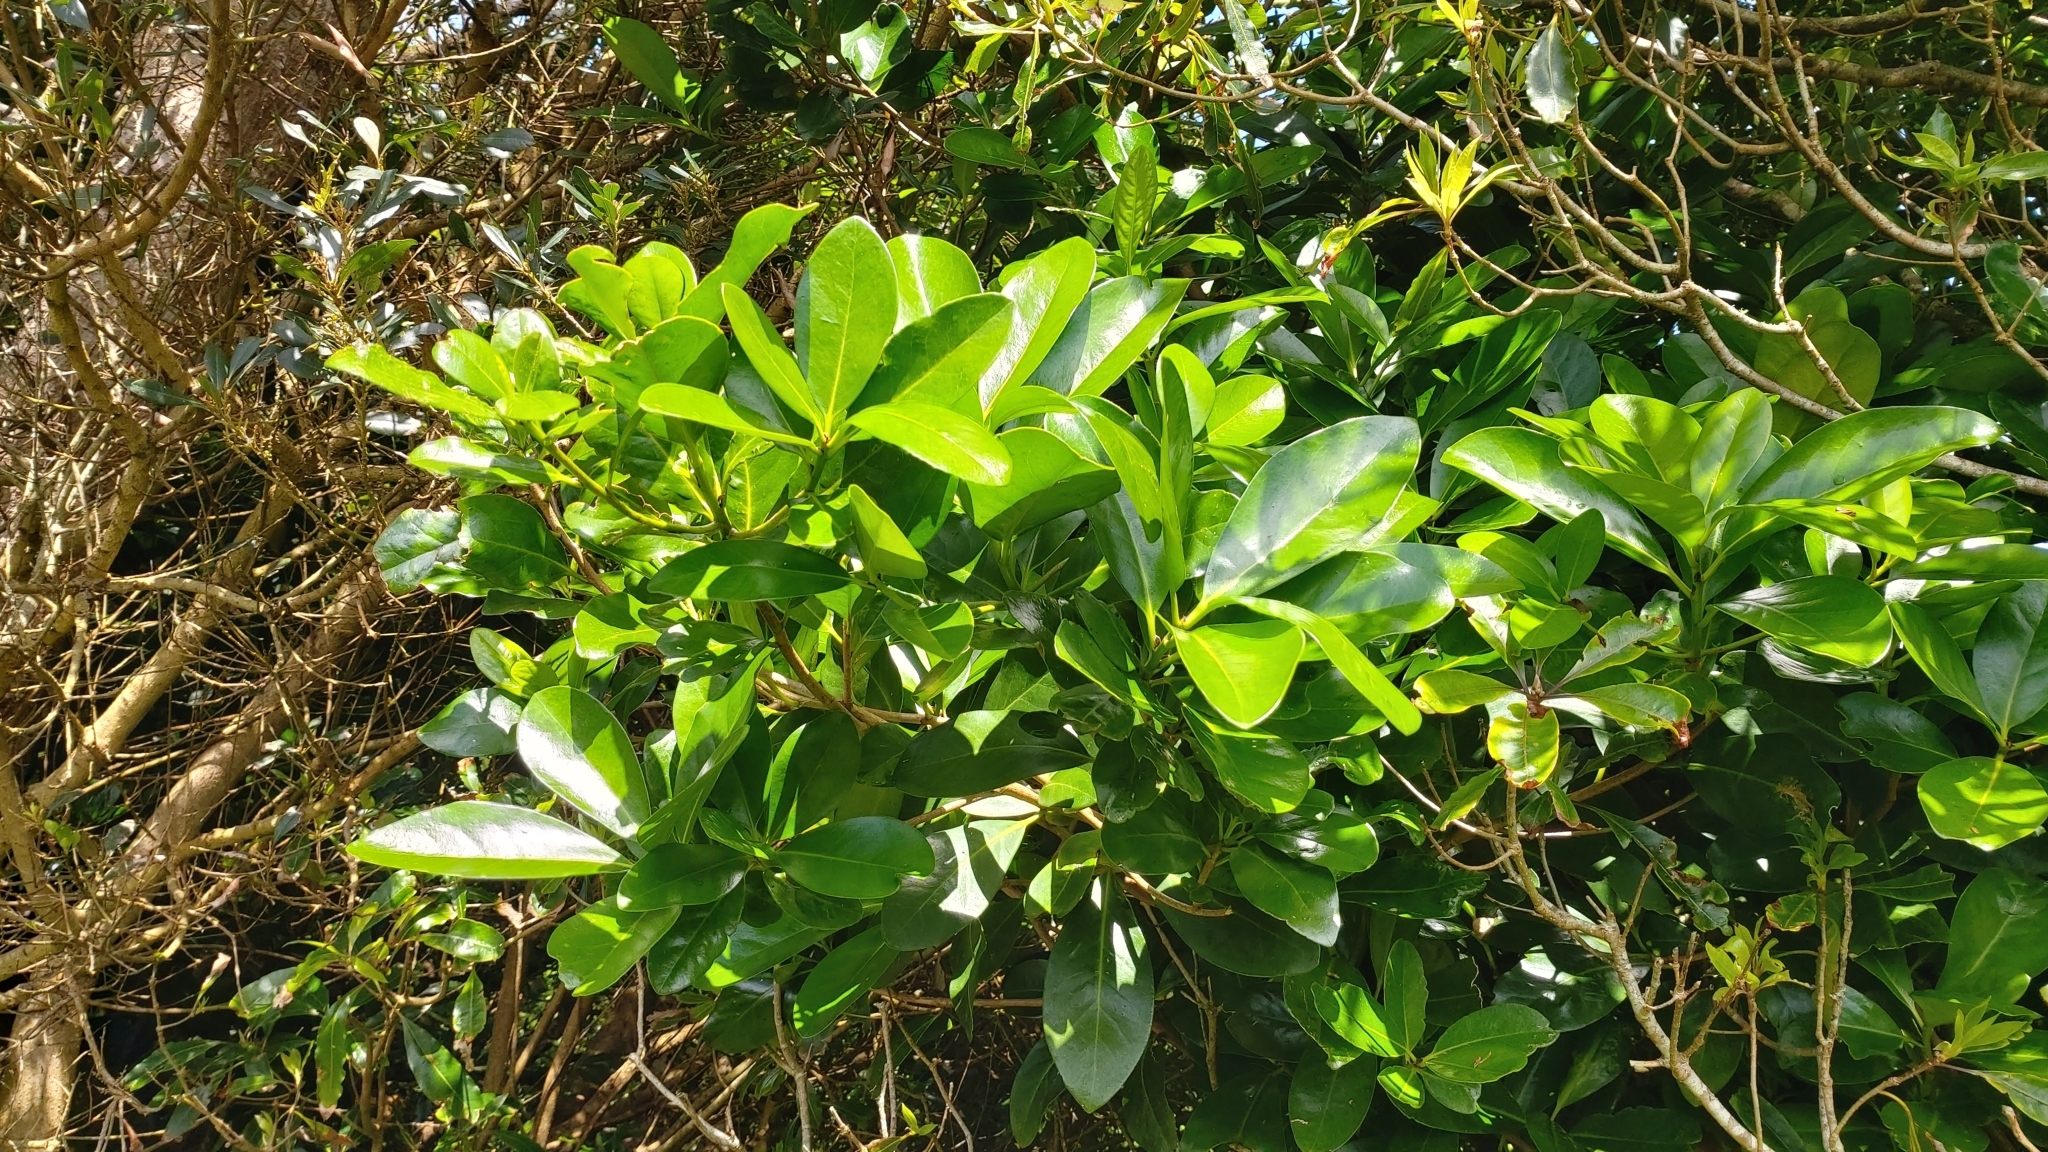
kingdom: Plantae
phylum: Tracheophyta
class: Magnoliopsida
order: Cucurbitales
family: Corynocarpaceae
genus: Corynocarpus
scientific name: Corynocarpus laevigatus
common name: New zealand laurel
